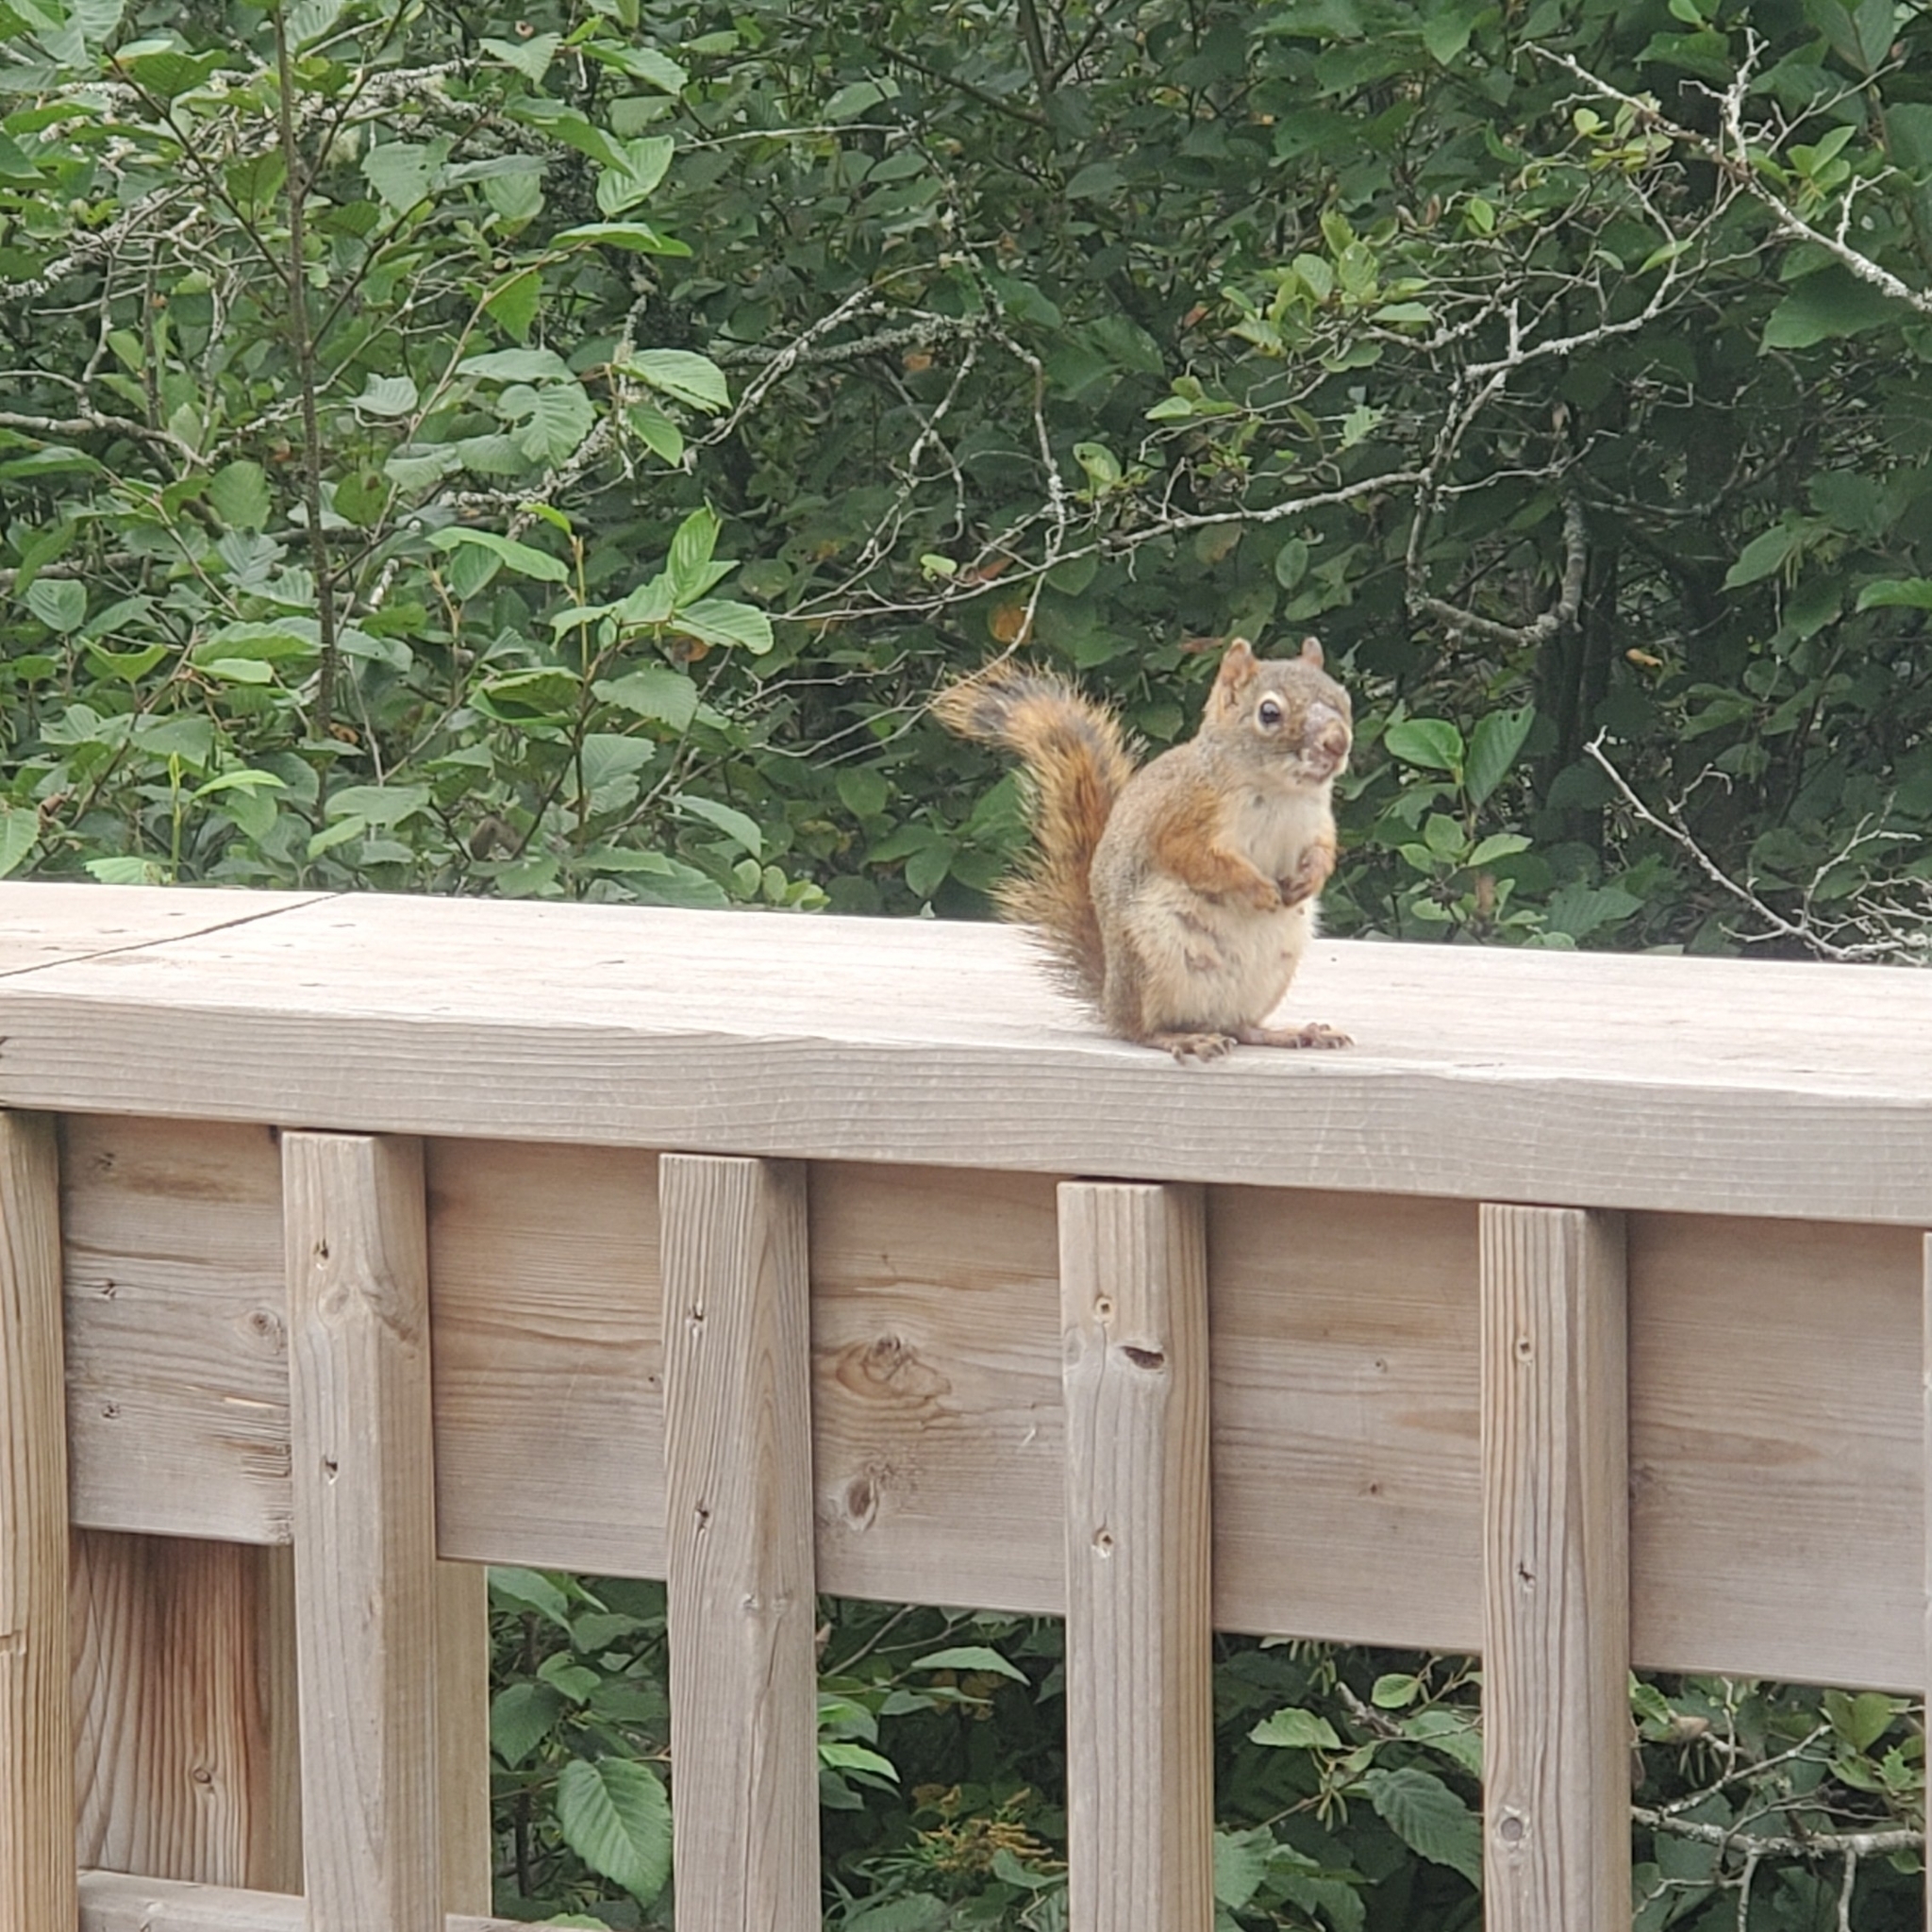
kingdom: Animalia
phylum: Chordata
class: Mammalia
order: Rodentia
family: Sciuridae
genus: Tamiasciurus
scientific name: Tamiasciurus hudsonicus
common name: Red squirrel
